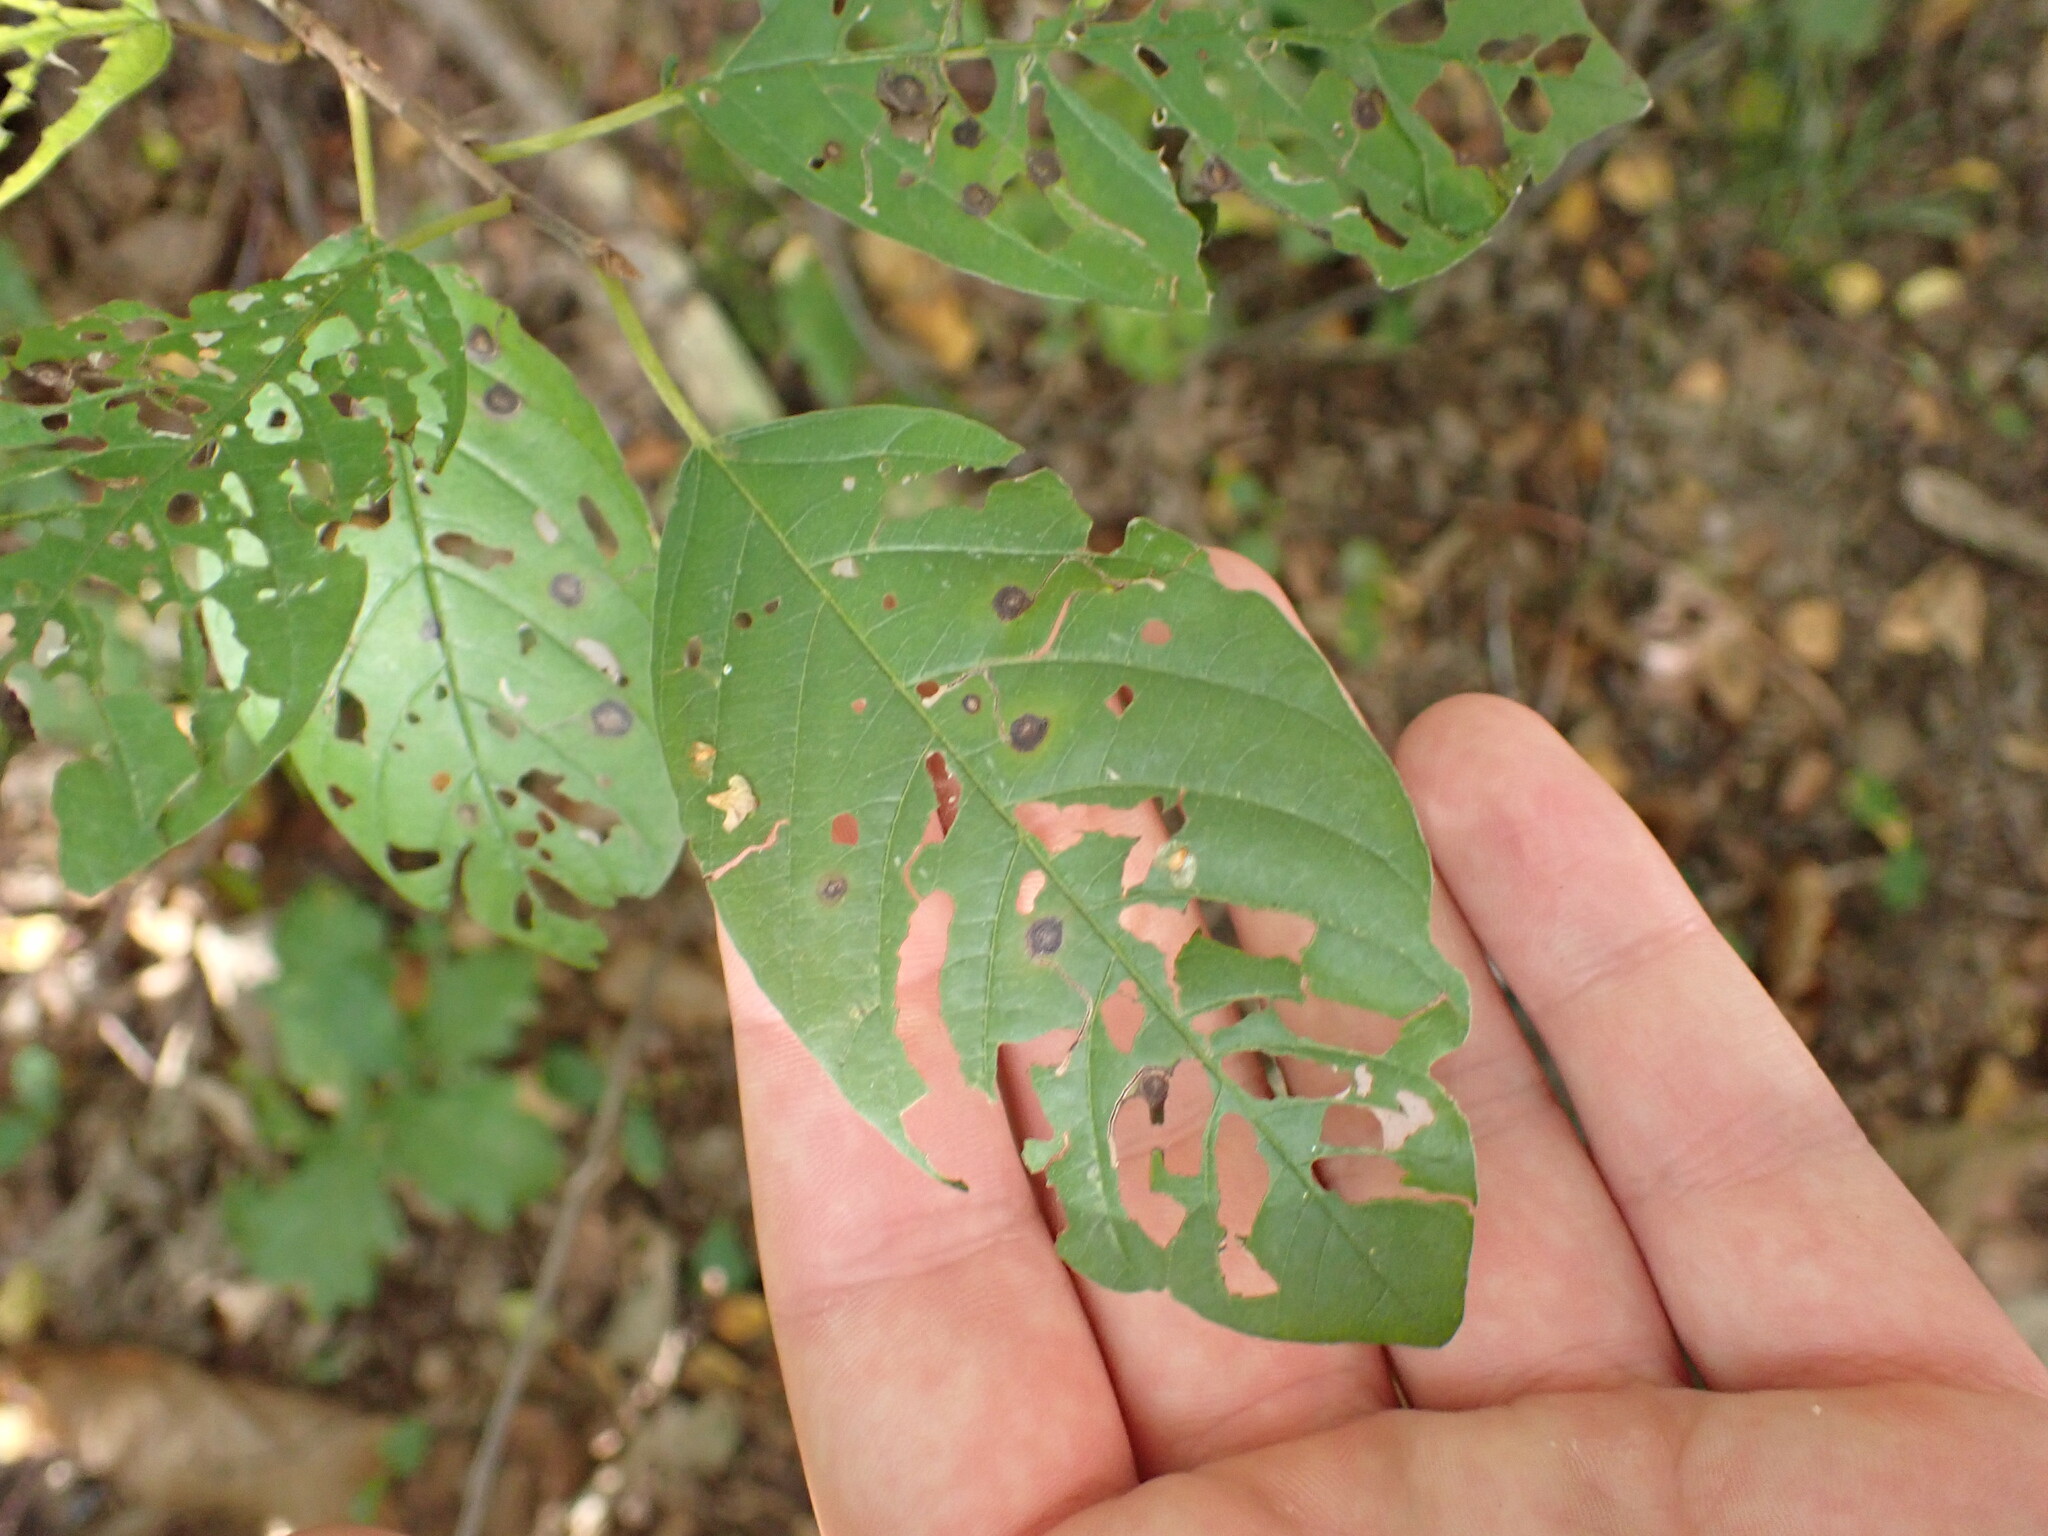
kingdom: Animalia
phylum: Arthropoda
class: Insecta
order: Lepidoptera
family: Bucculatricidae
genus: Bucculatrix
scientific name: Bucculatrix frangutella
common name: Buckthorn bent-wing
